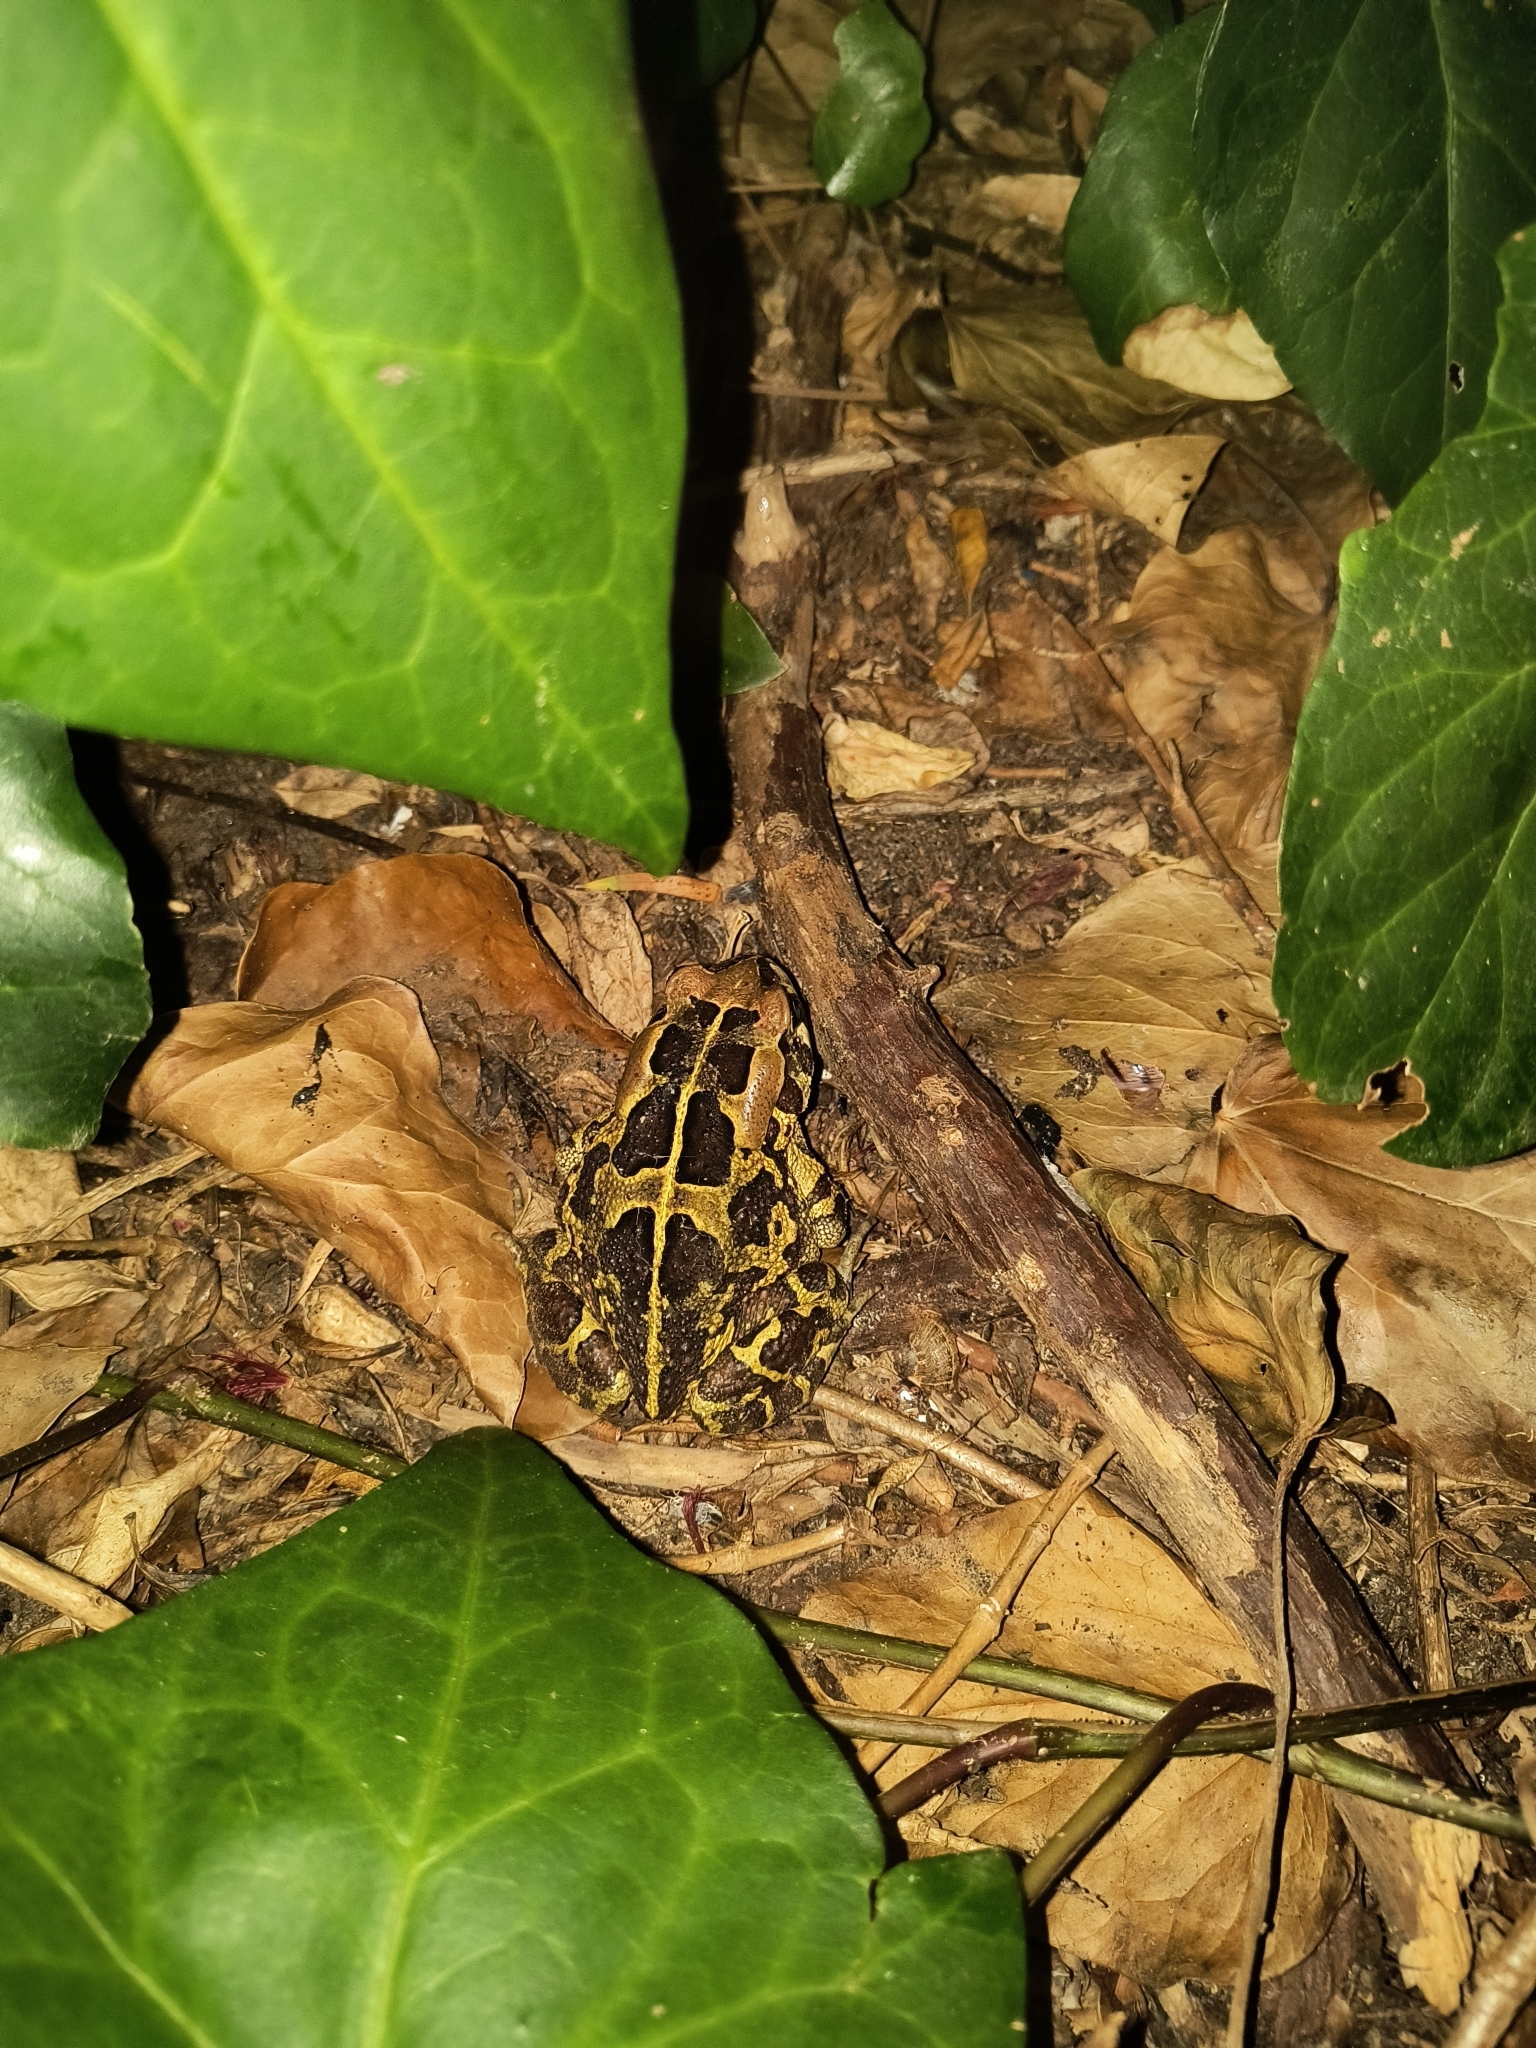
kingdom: Animalia
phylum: Chordata
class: Amphibia
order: Anura
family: Bufonidae
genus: Sclerophrys
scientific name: Sclerophrys pantherina
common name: Panther toad
